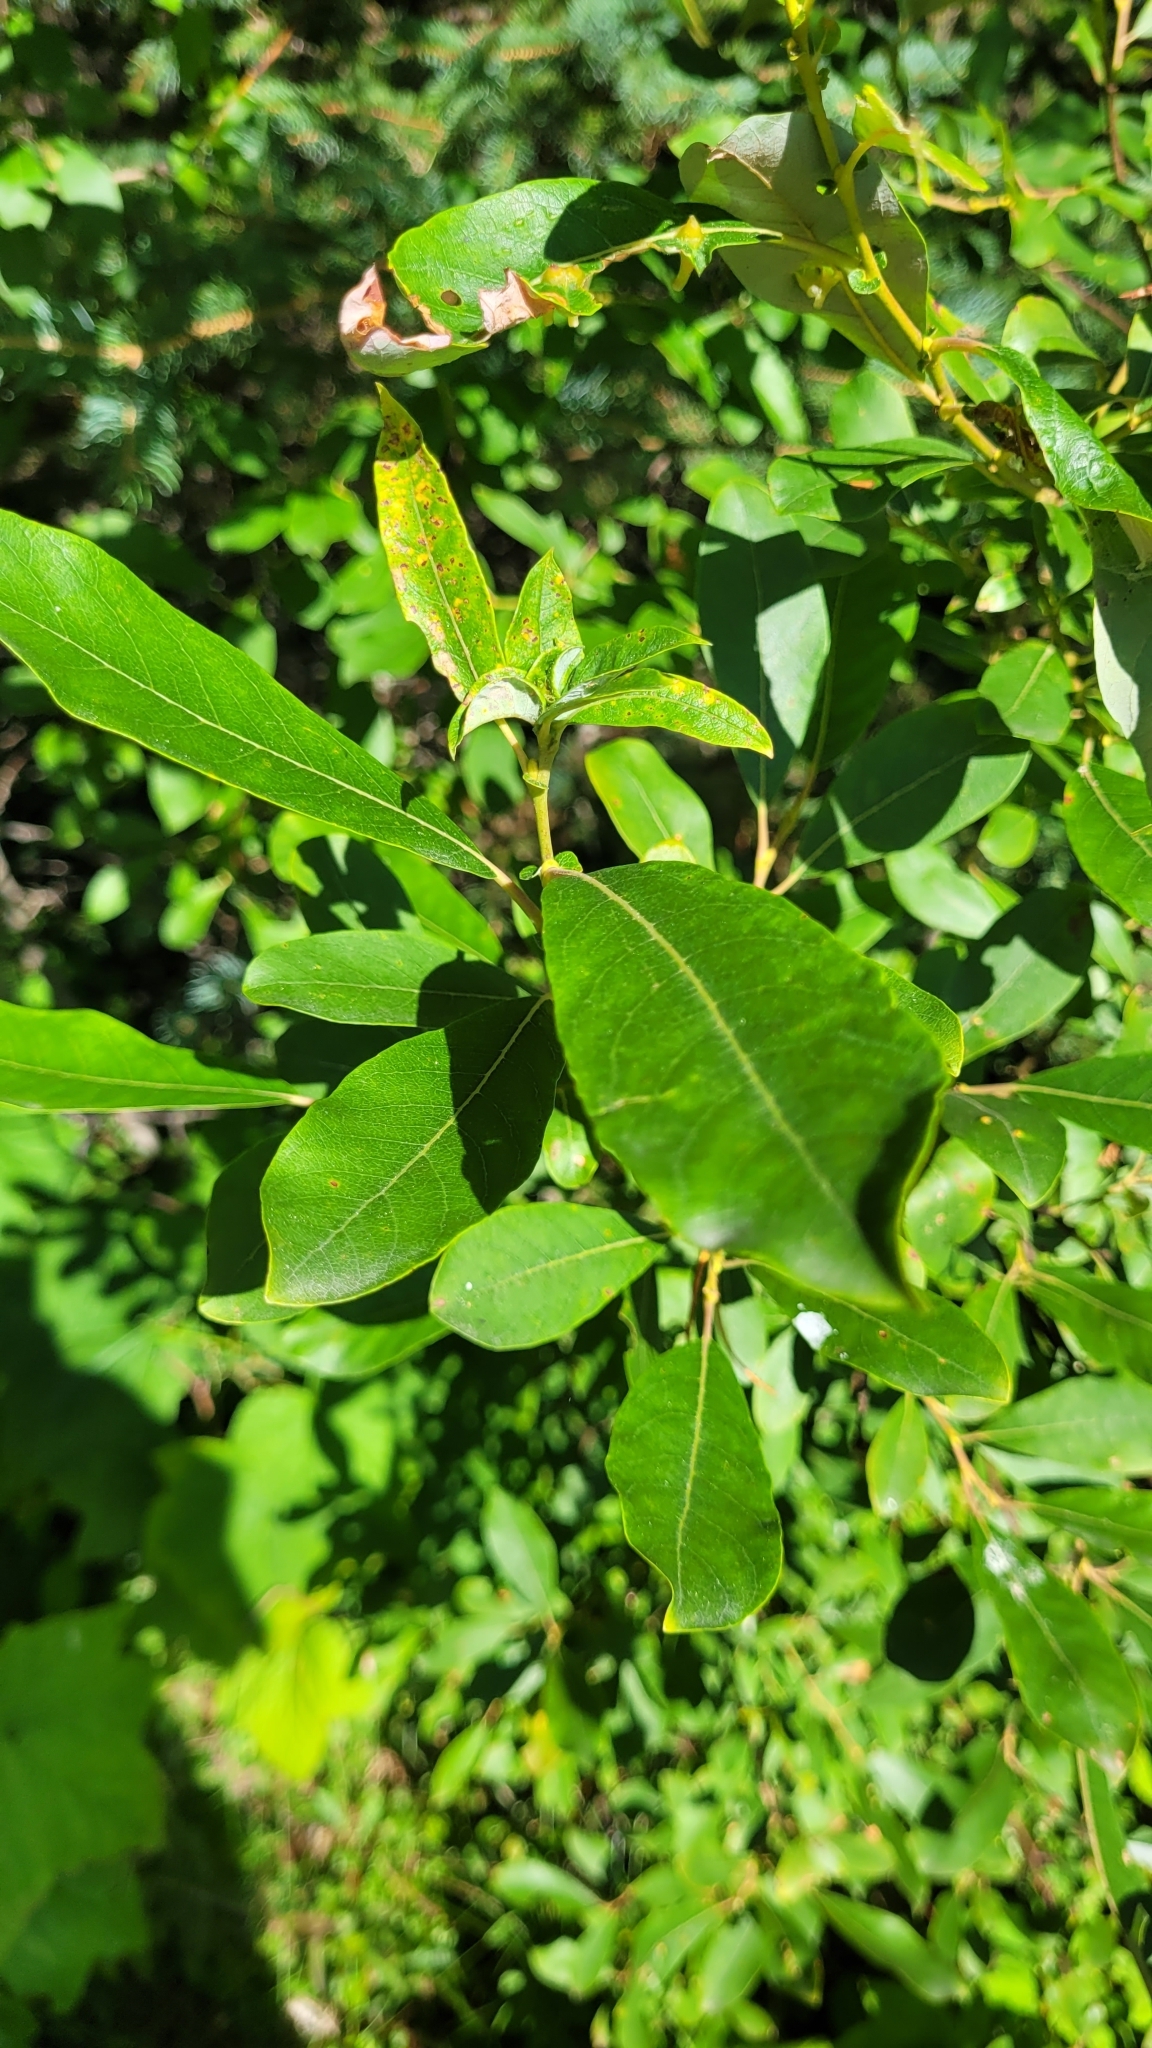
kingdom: Plantae
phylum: Tracheophyta
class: Magnoliopsida
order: Malpighiales
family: Salicaceae
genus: Salix
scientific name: Salix discolor
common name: Glaucous willow
